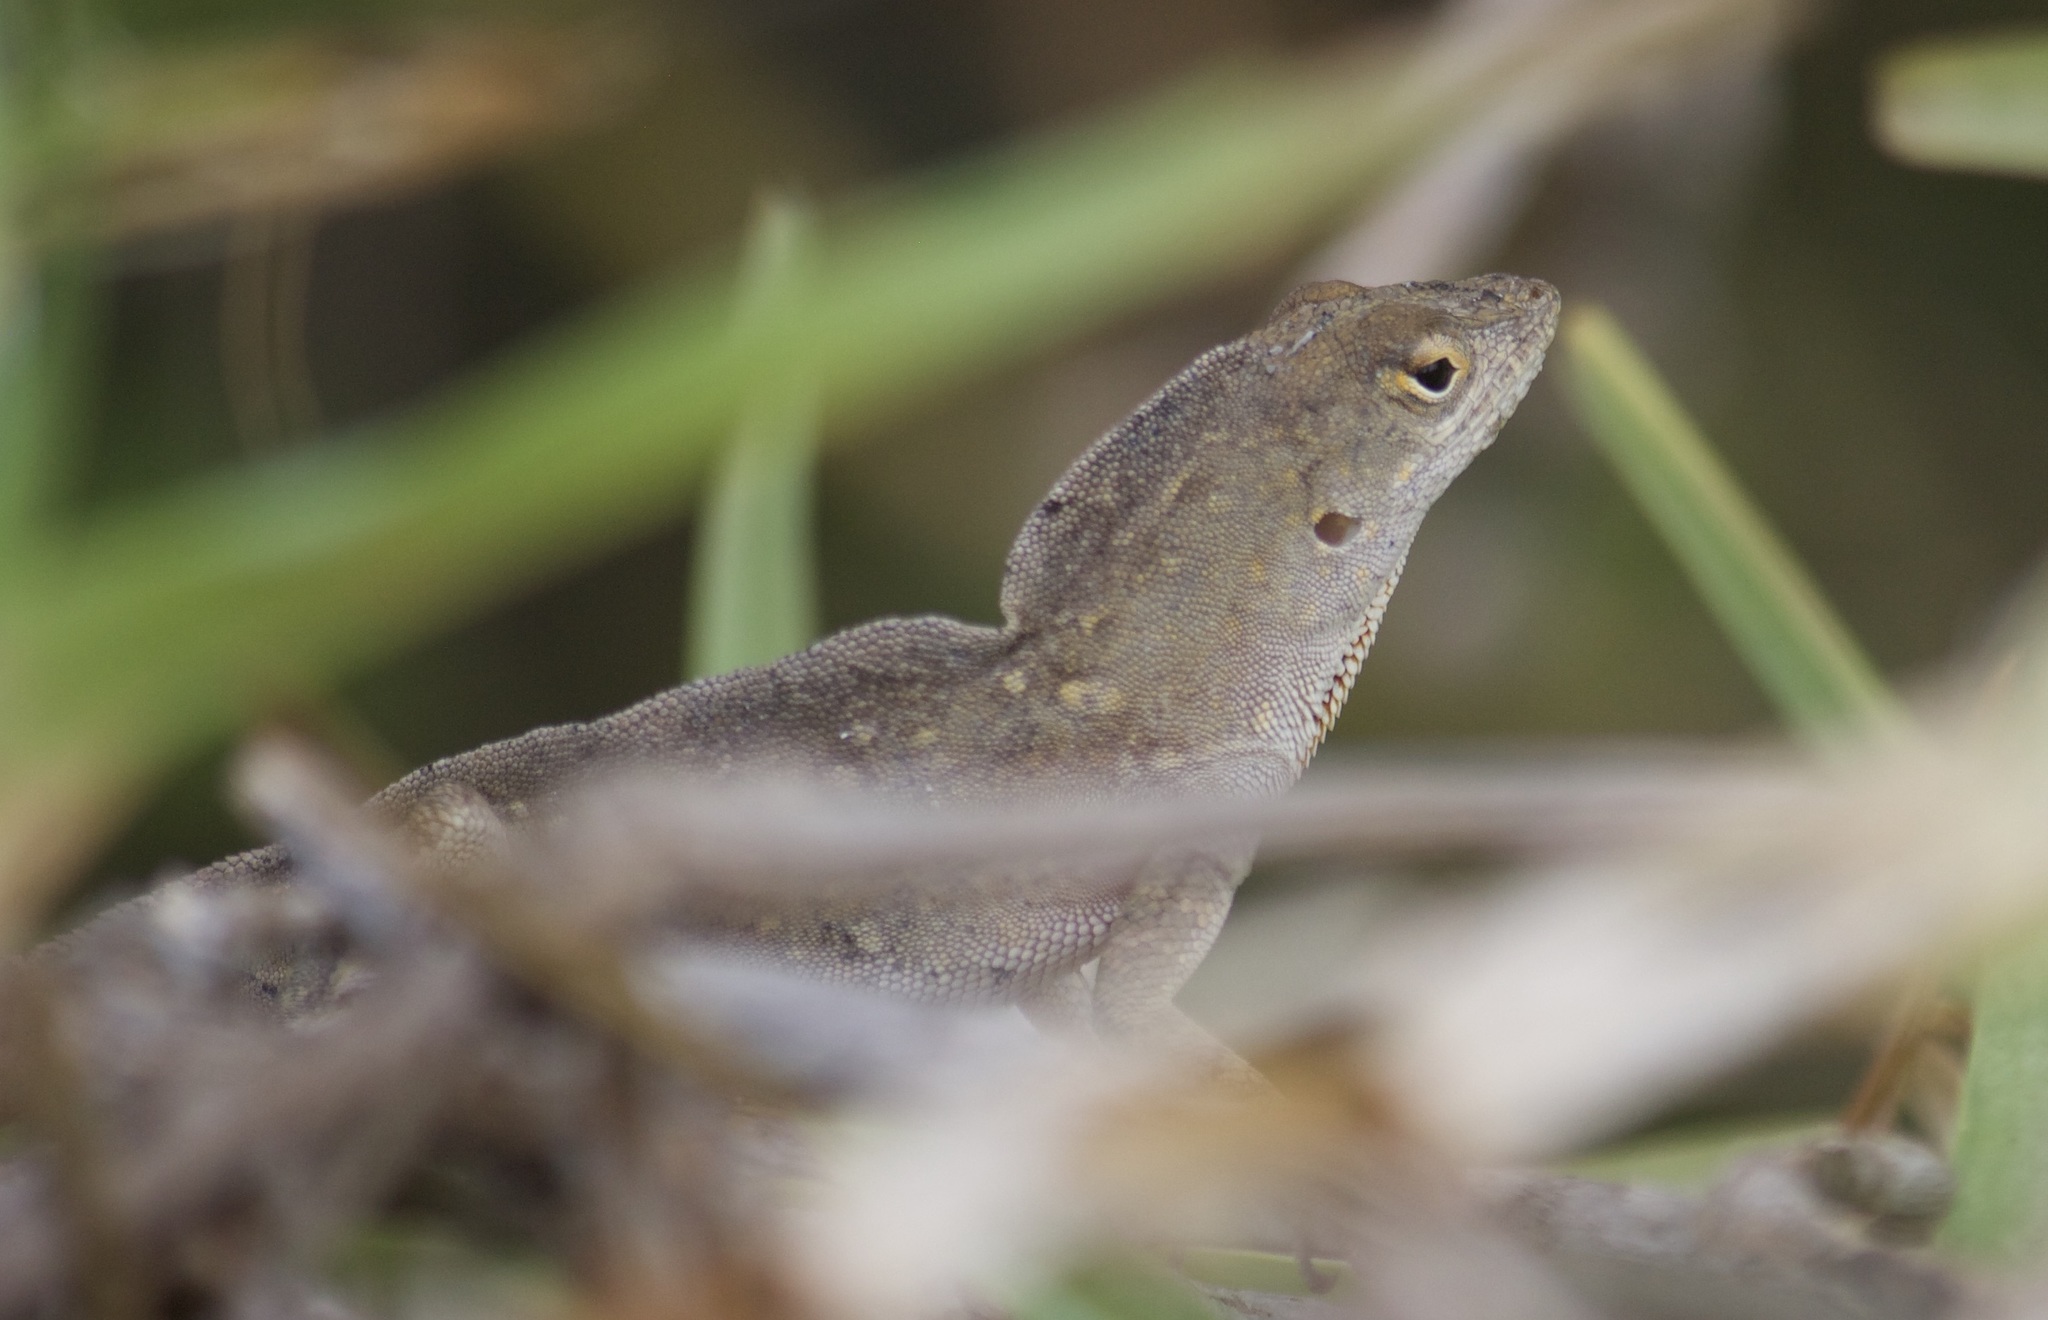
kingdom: Animalia
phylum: Chordata
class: Squamata
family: Dactyloidae
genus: Anolis
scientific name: Anolis sagrei
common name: Brown anole
